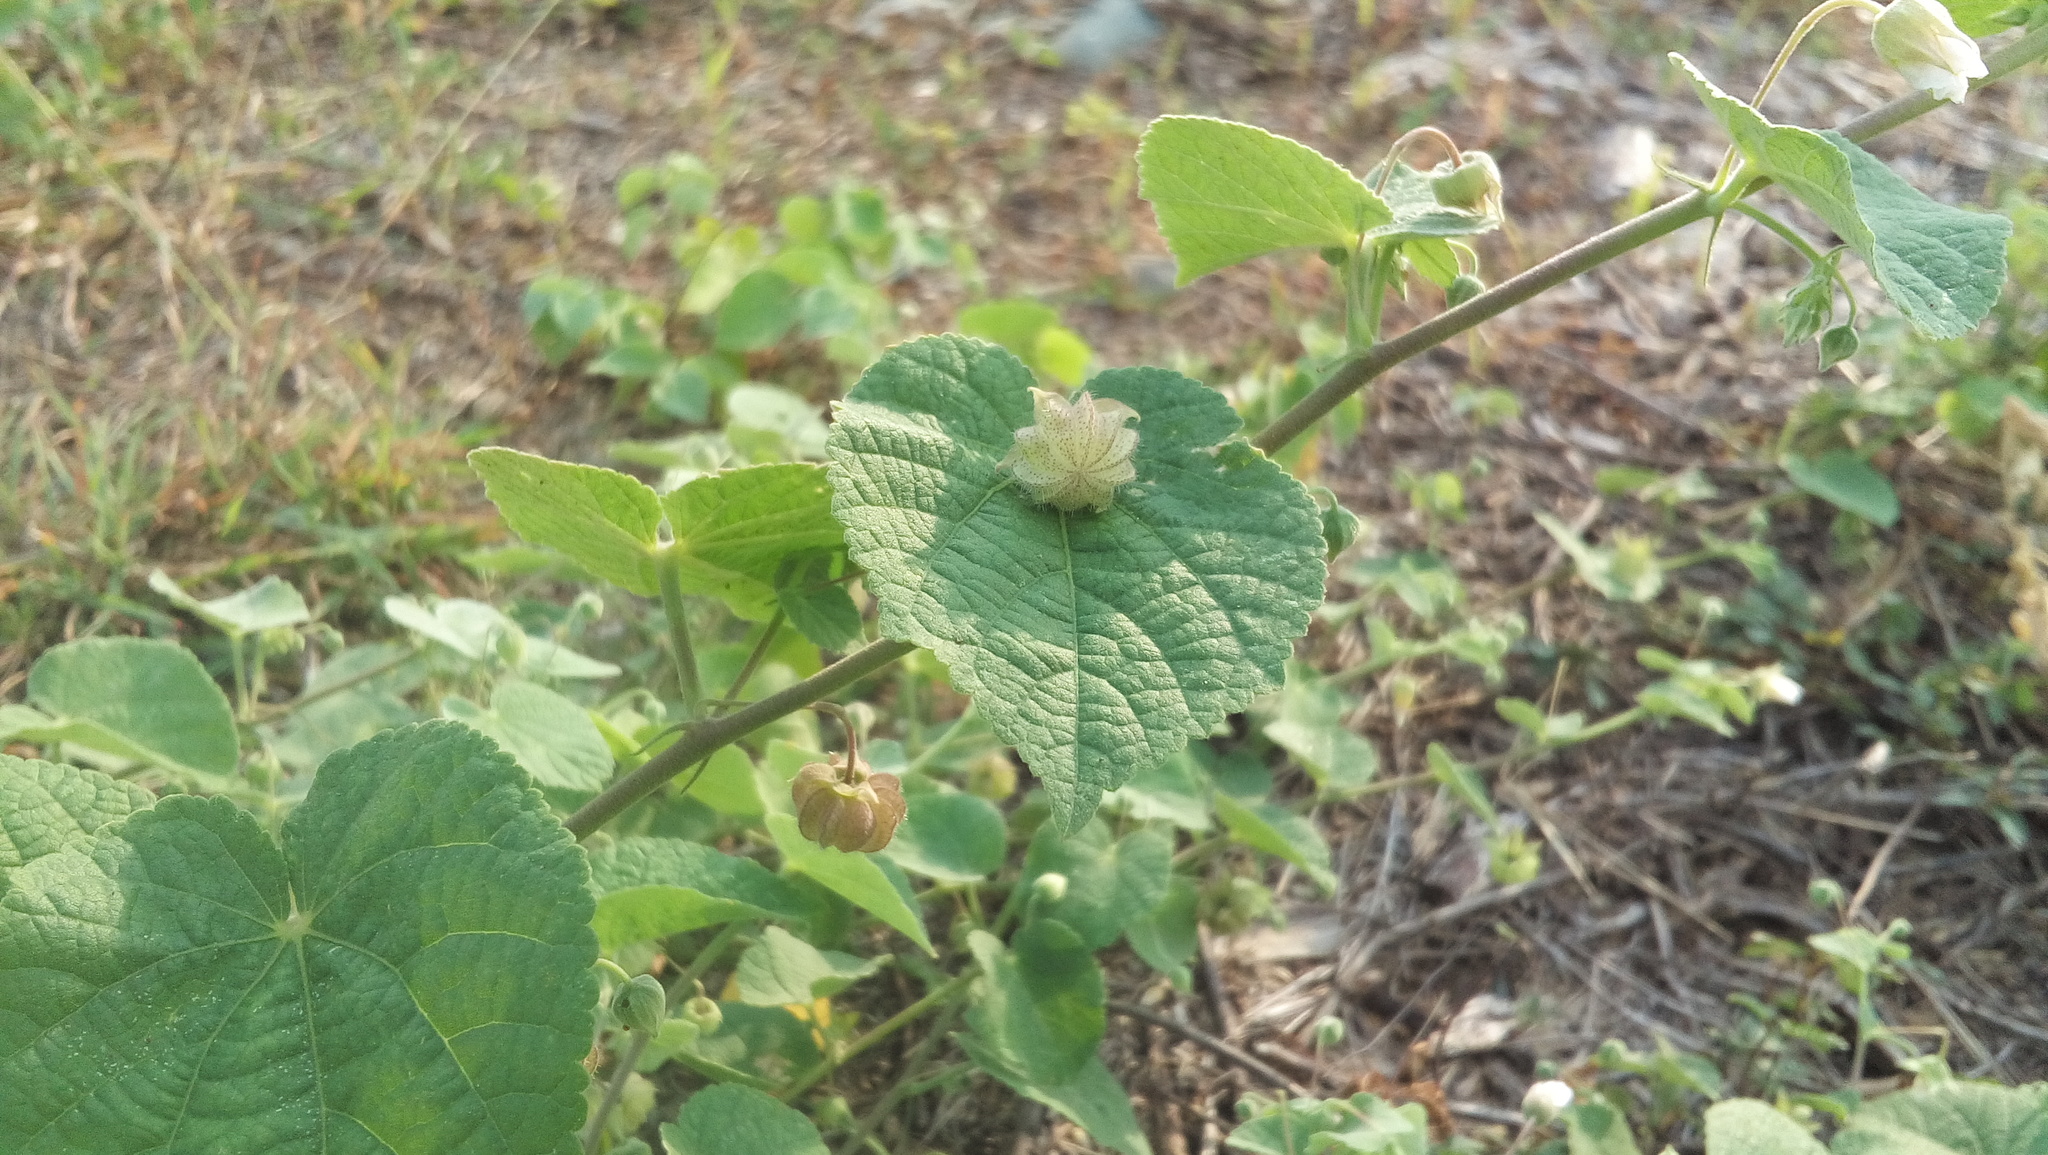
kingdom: Plantae
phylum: Tracheophyta
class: Magnoliopsida
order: Malvales
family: Malvaceae
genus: Herissantia
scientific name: Herissantia crispa
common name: Bladdermallow
